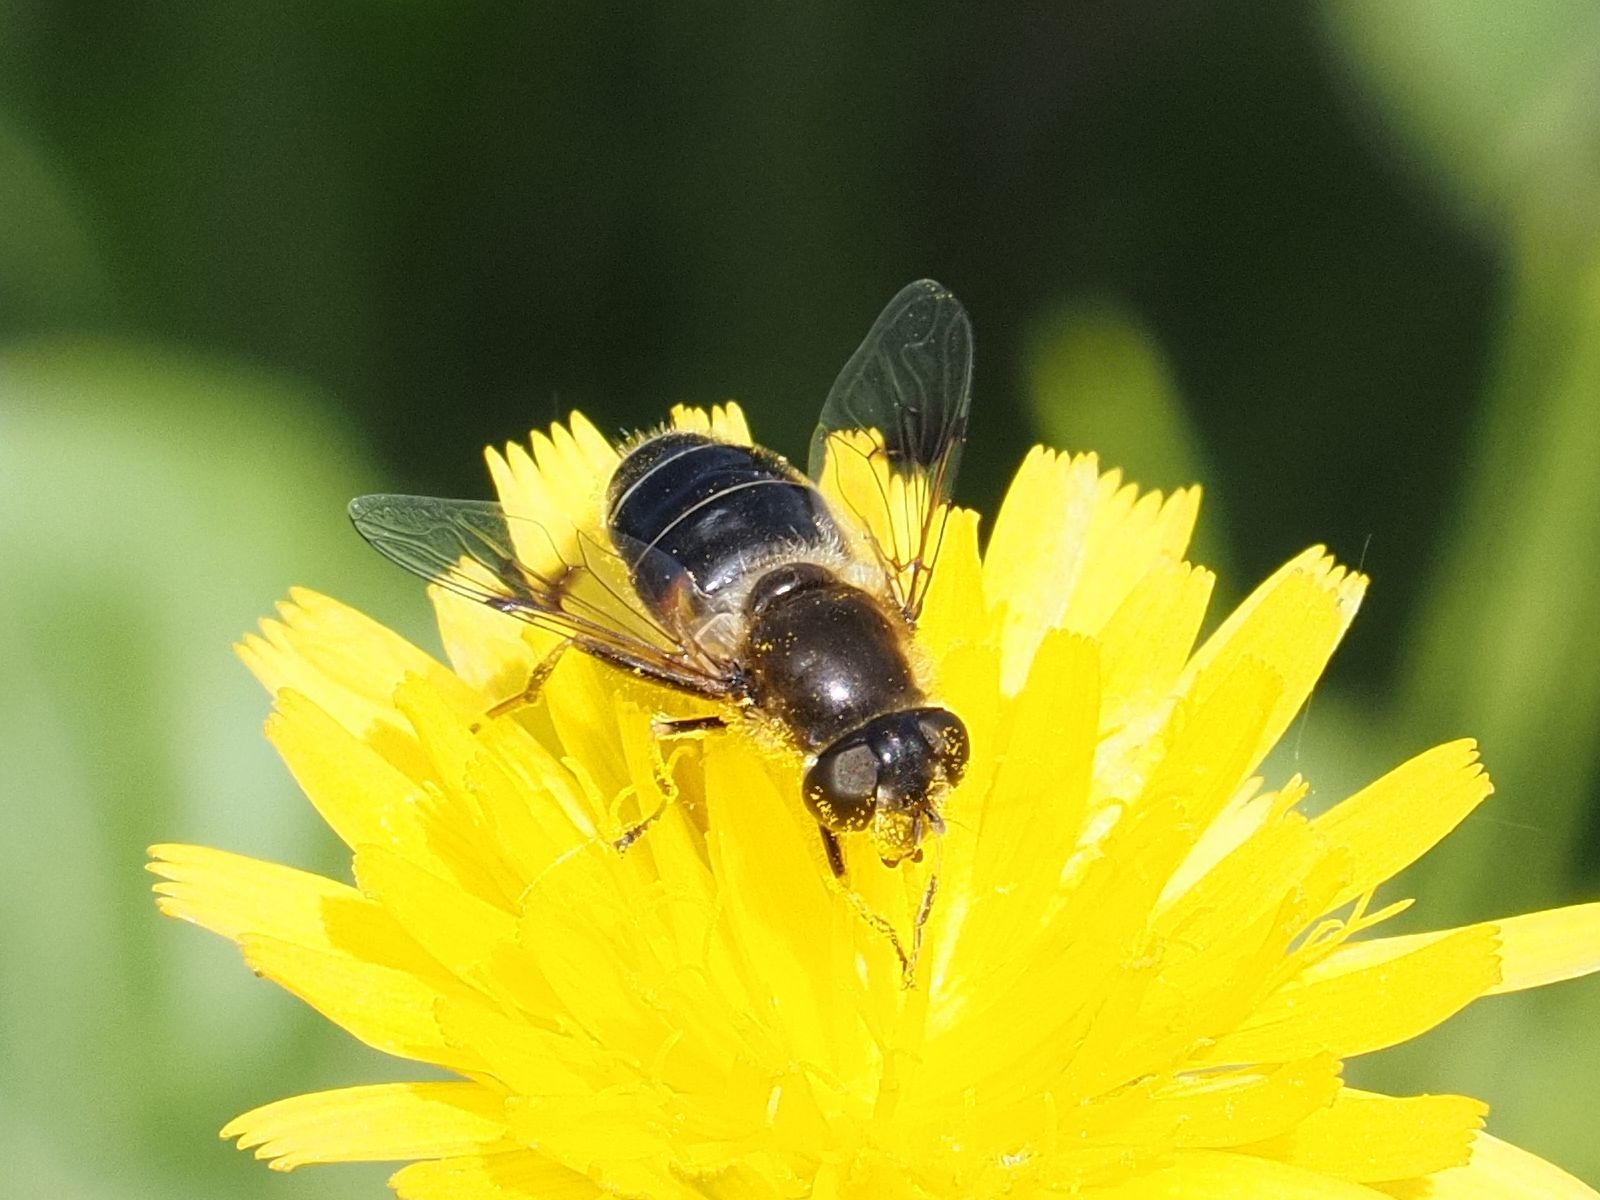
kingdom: Animalia
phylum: Arthropoda
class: Insecta
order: Diptera
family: Syrphidae
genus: Eristalis
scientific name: Eristalis rupium
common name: Hover fly
